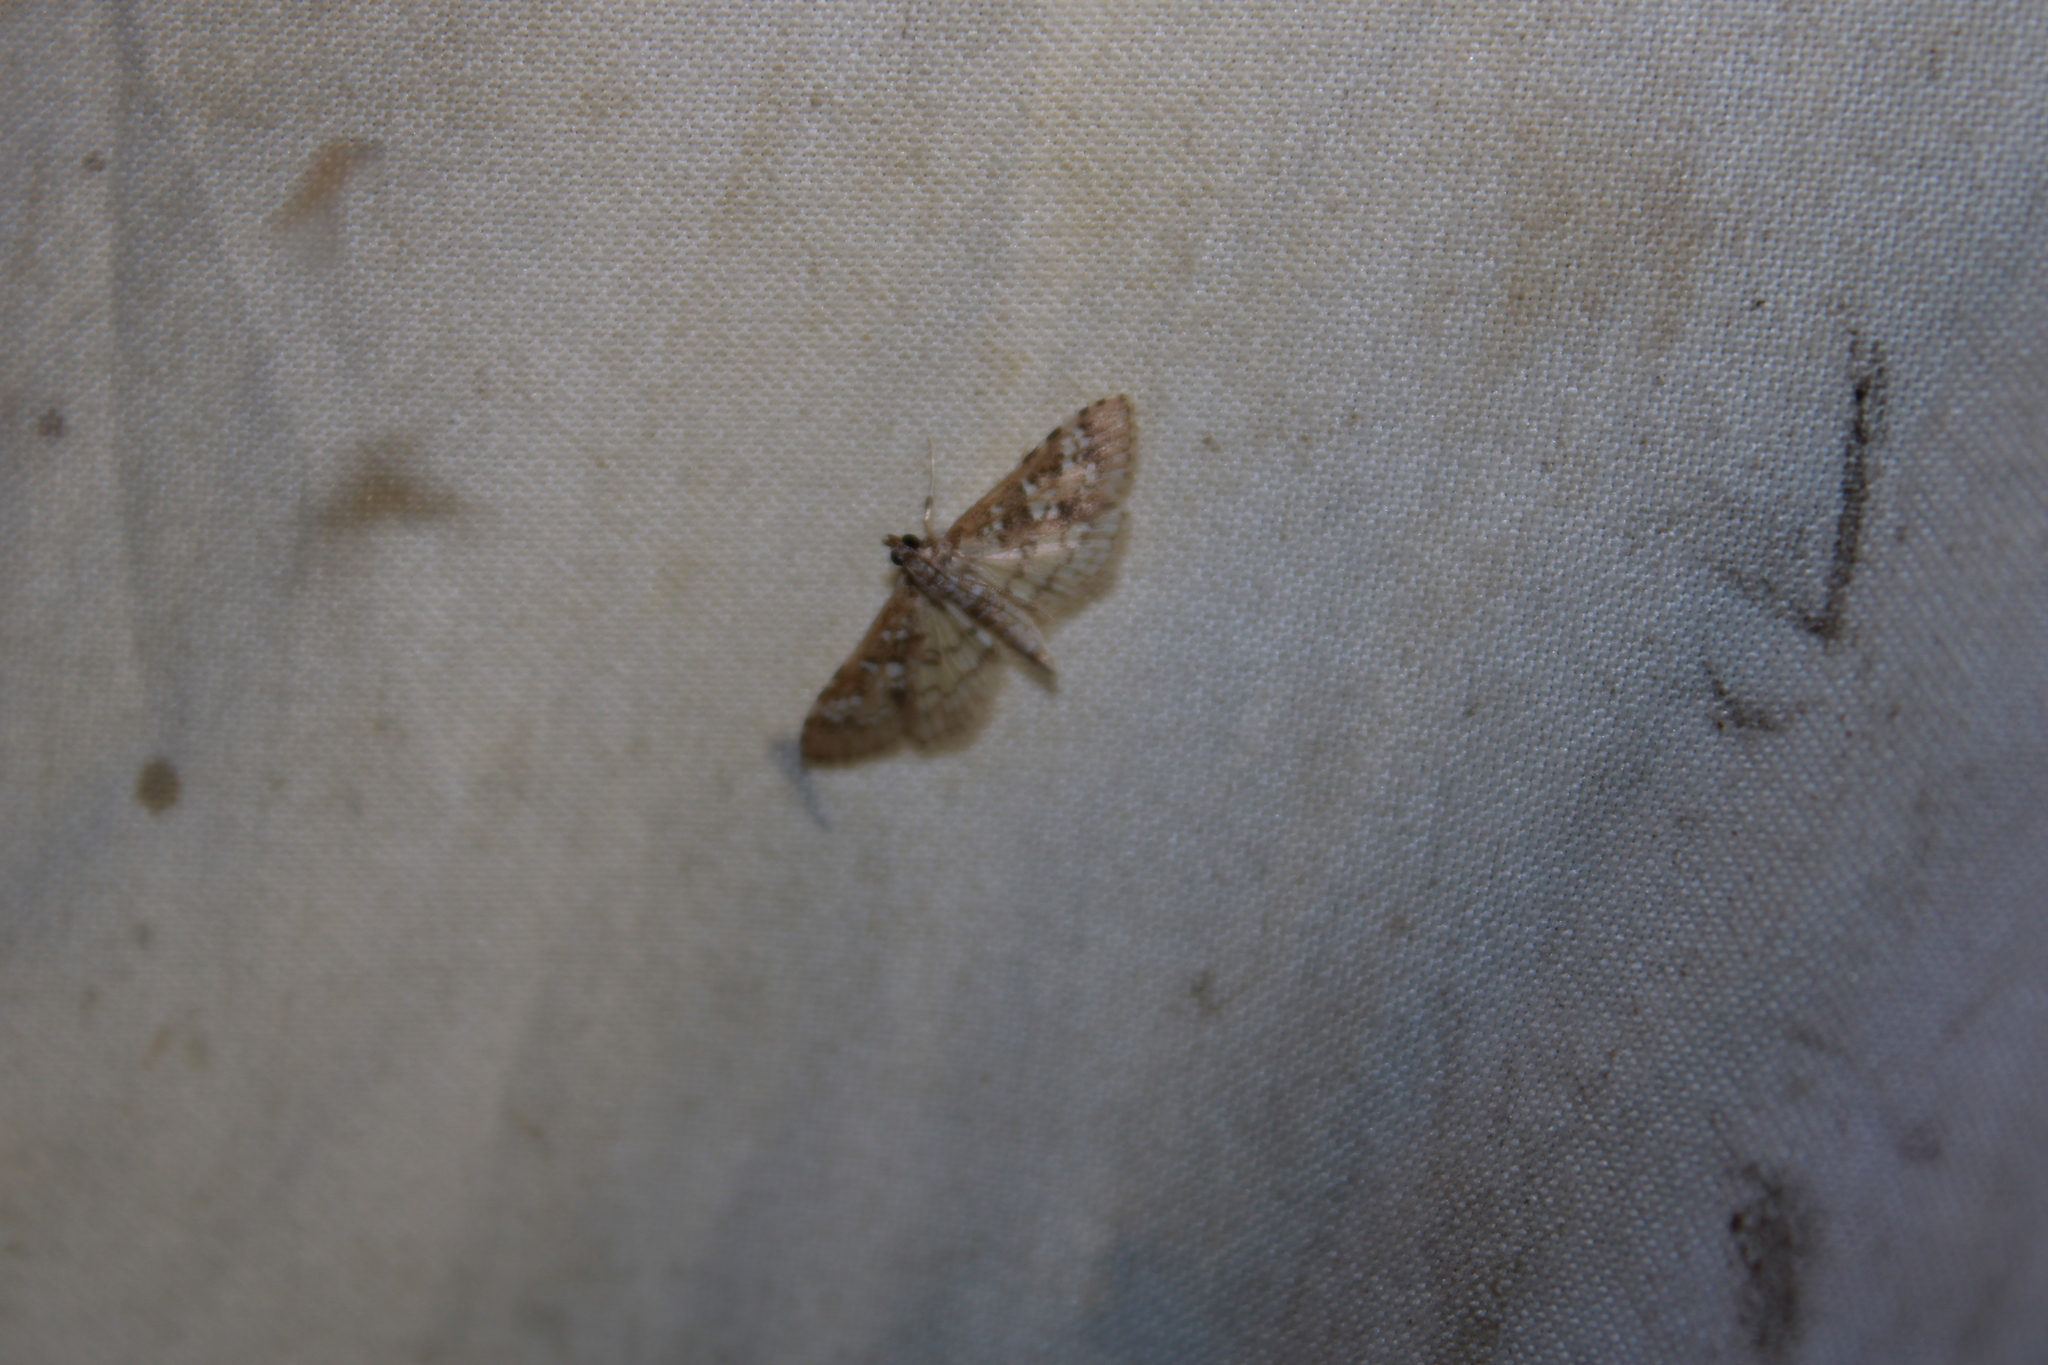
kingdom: Animalia
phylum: Arthropoda
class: Insecta
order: Lepidoptera
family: Crambidae
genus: Samea
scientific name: Samea multiplicalis
